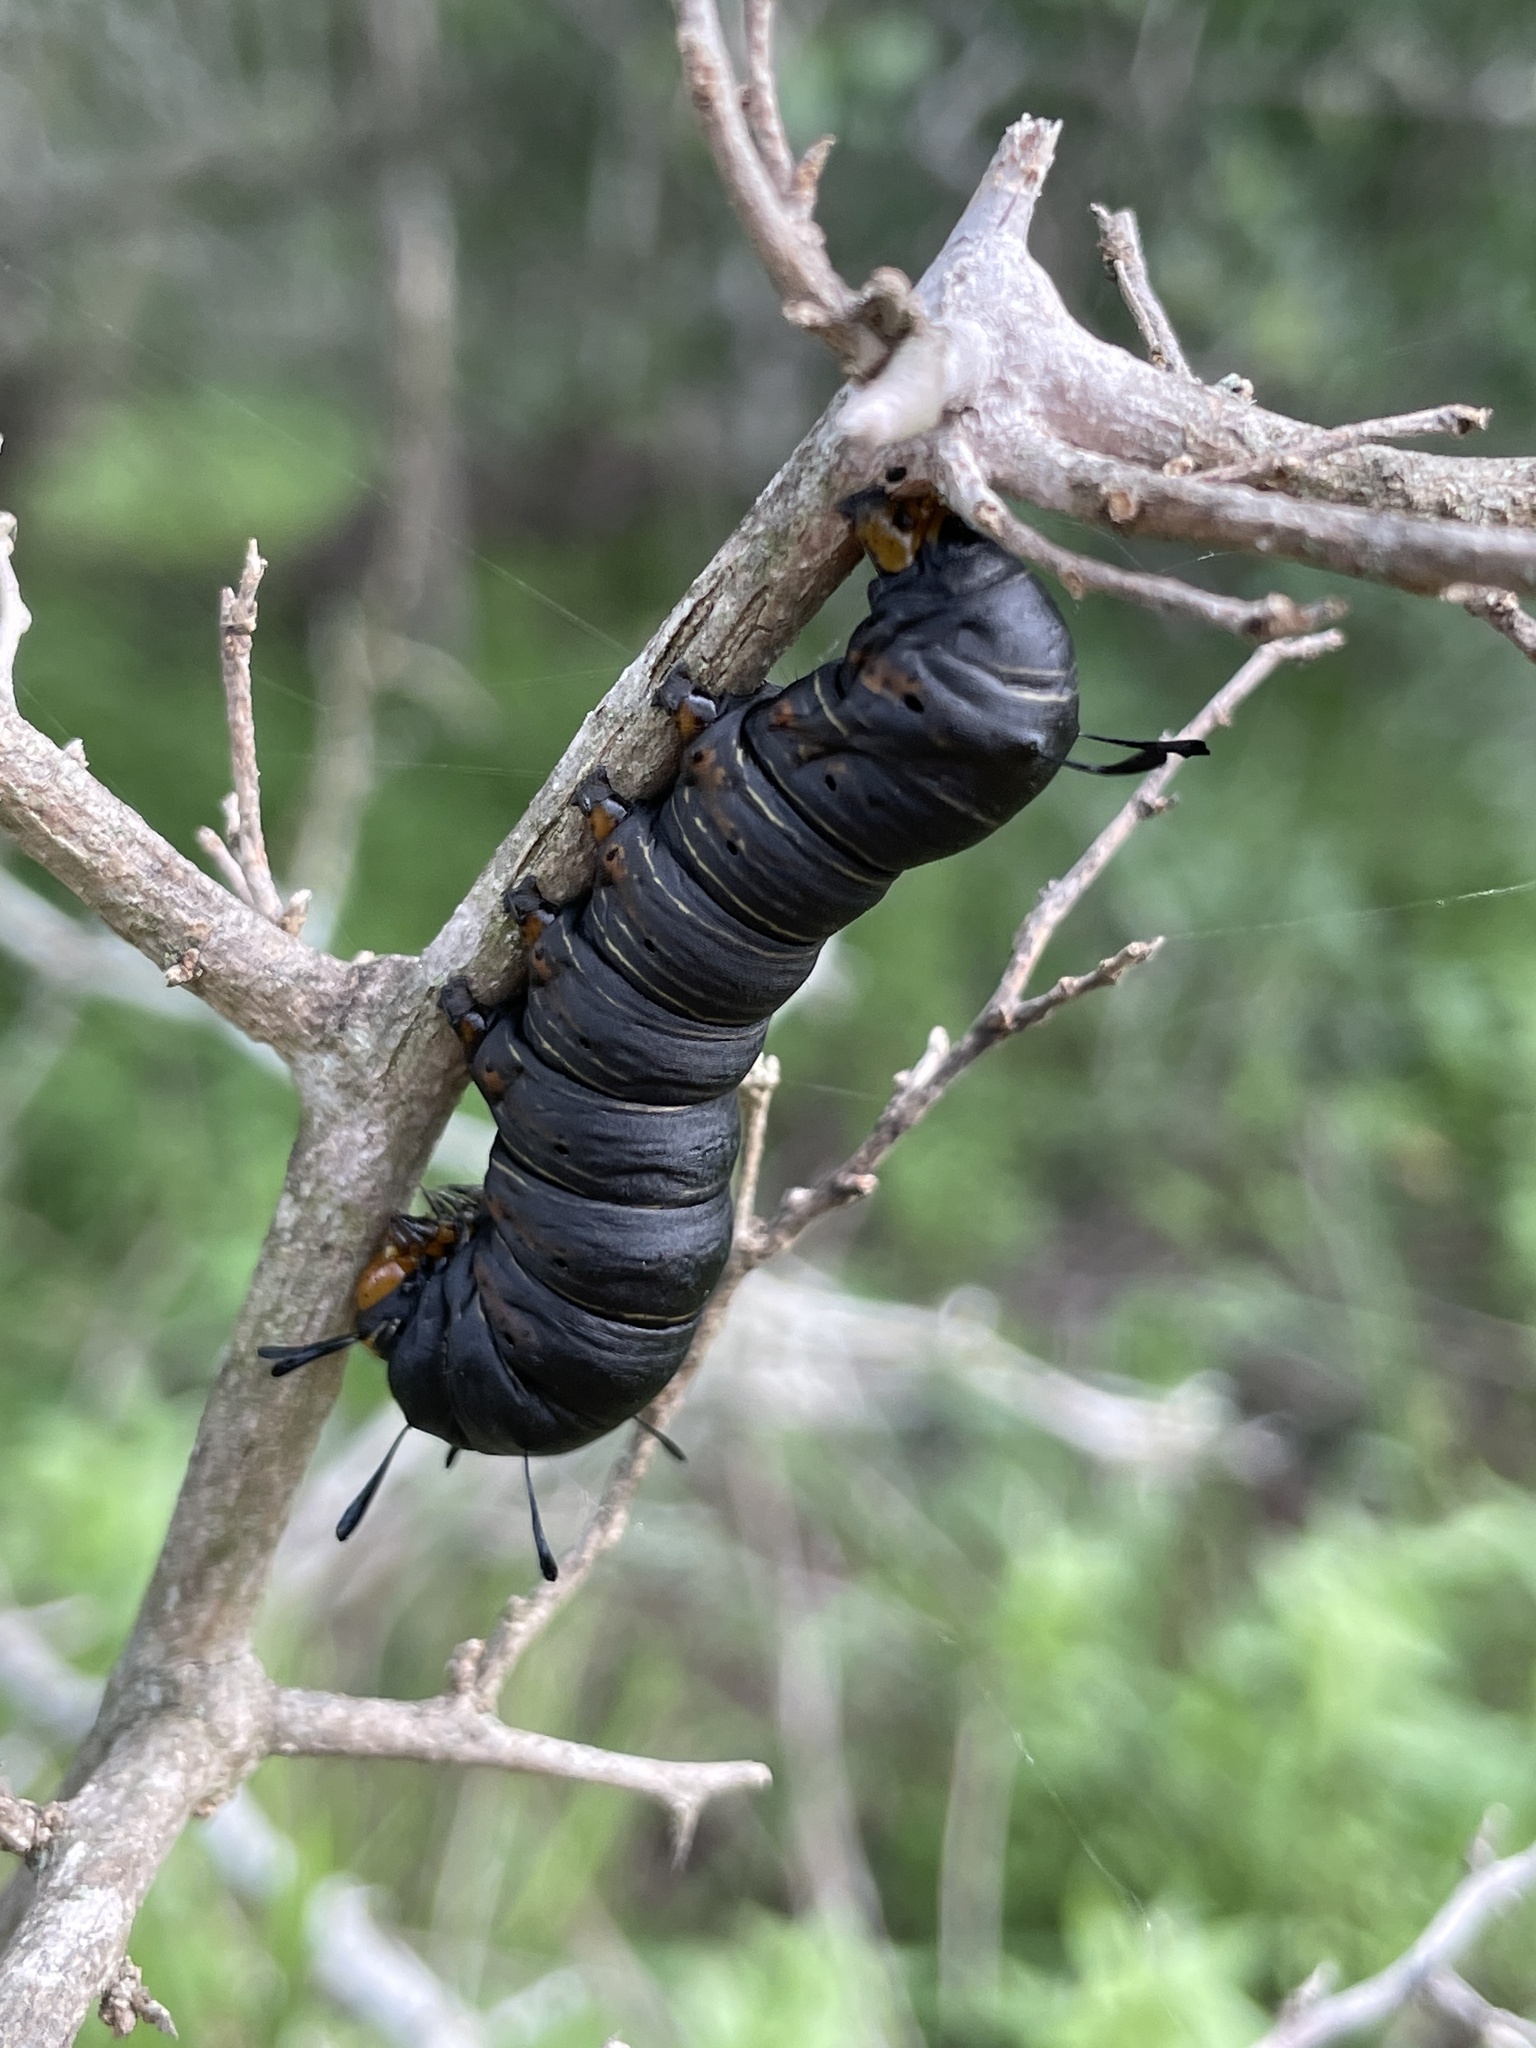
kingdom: Animalia
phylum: Arthropoda
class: Insecta
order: Lepidoptera
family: Noctuidae
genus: Xerociris
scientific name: Xerociris wilsonii
